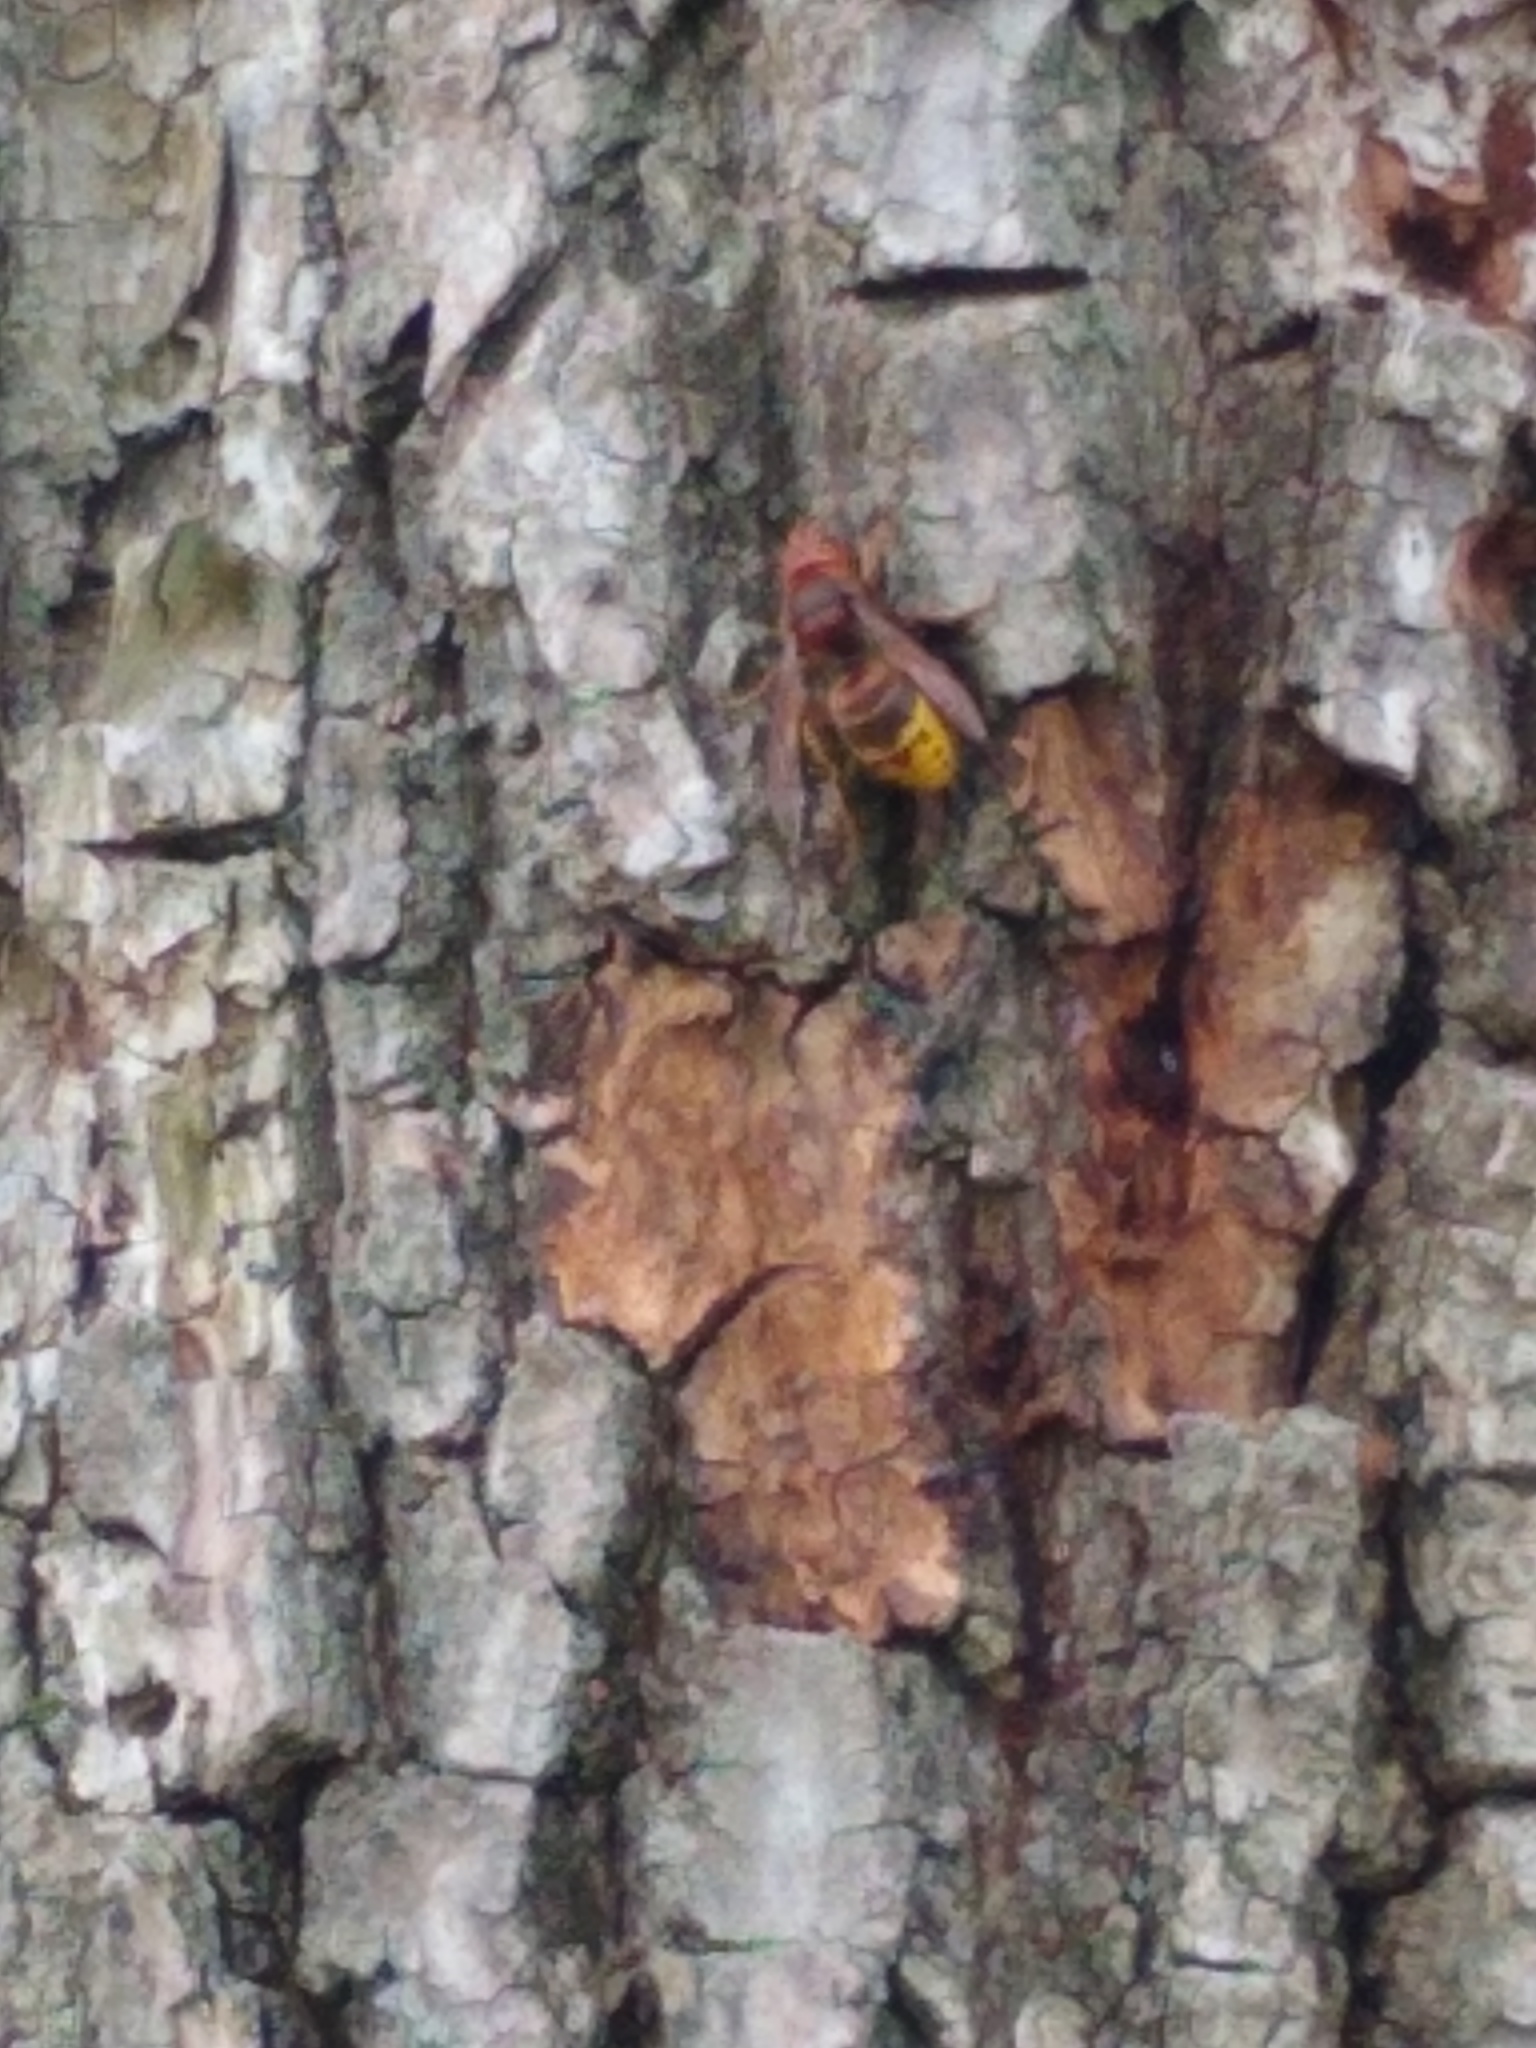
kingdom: Animalia
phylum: Arthropoda
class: Insecta
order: Hymenoptera
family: Vespidae
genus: Vespa
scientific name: Vespa crabro
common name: Hornet
